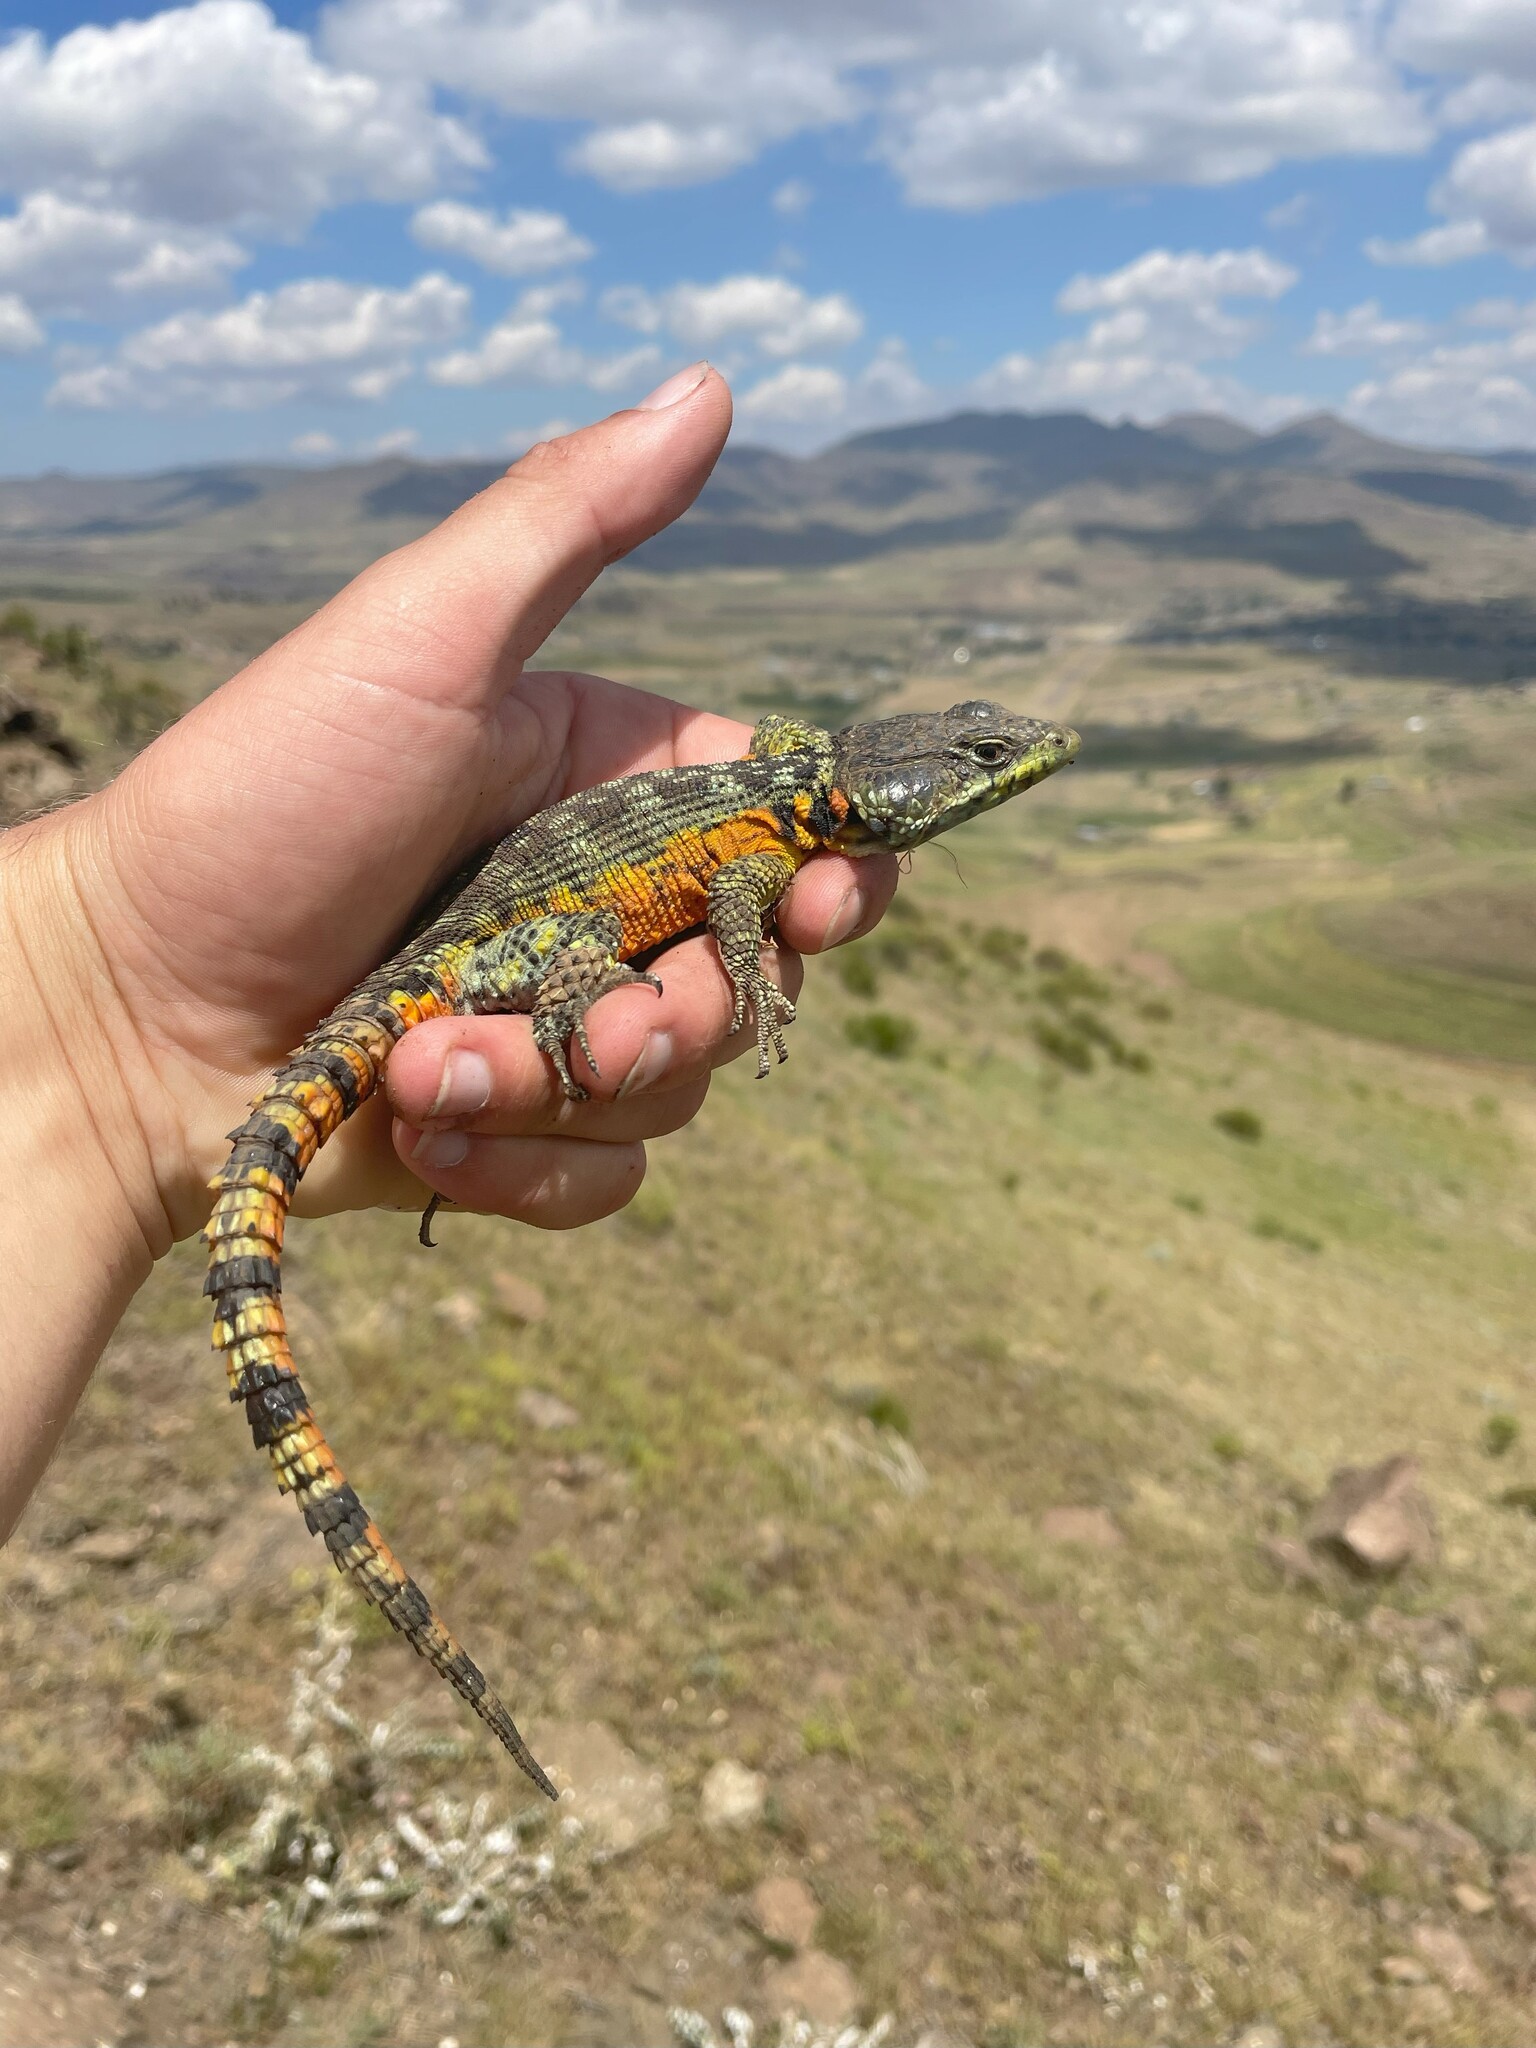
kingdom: Animalia
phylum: Chordata
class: Squamata
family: Cordylidae
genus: Pseudocordylus
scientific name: Pseudocordylus subviridis
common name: Drakensberg crag lizard
